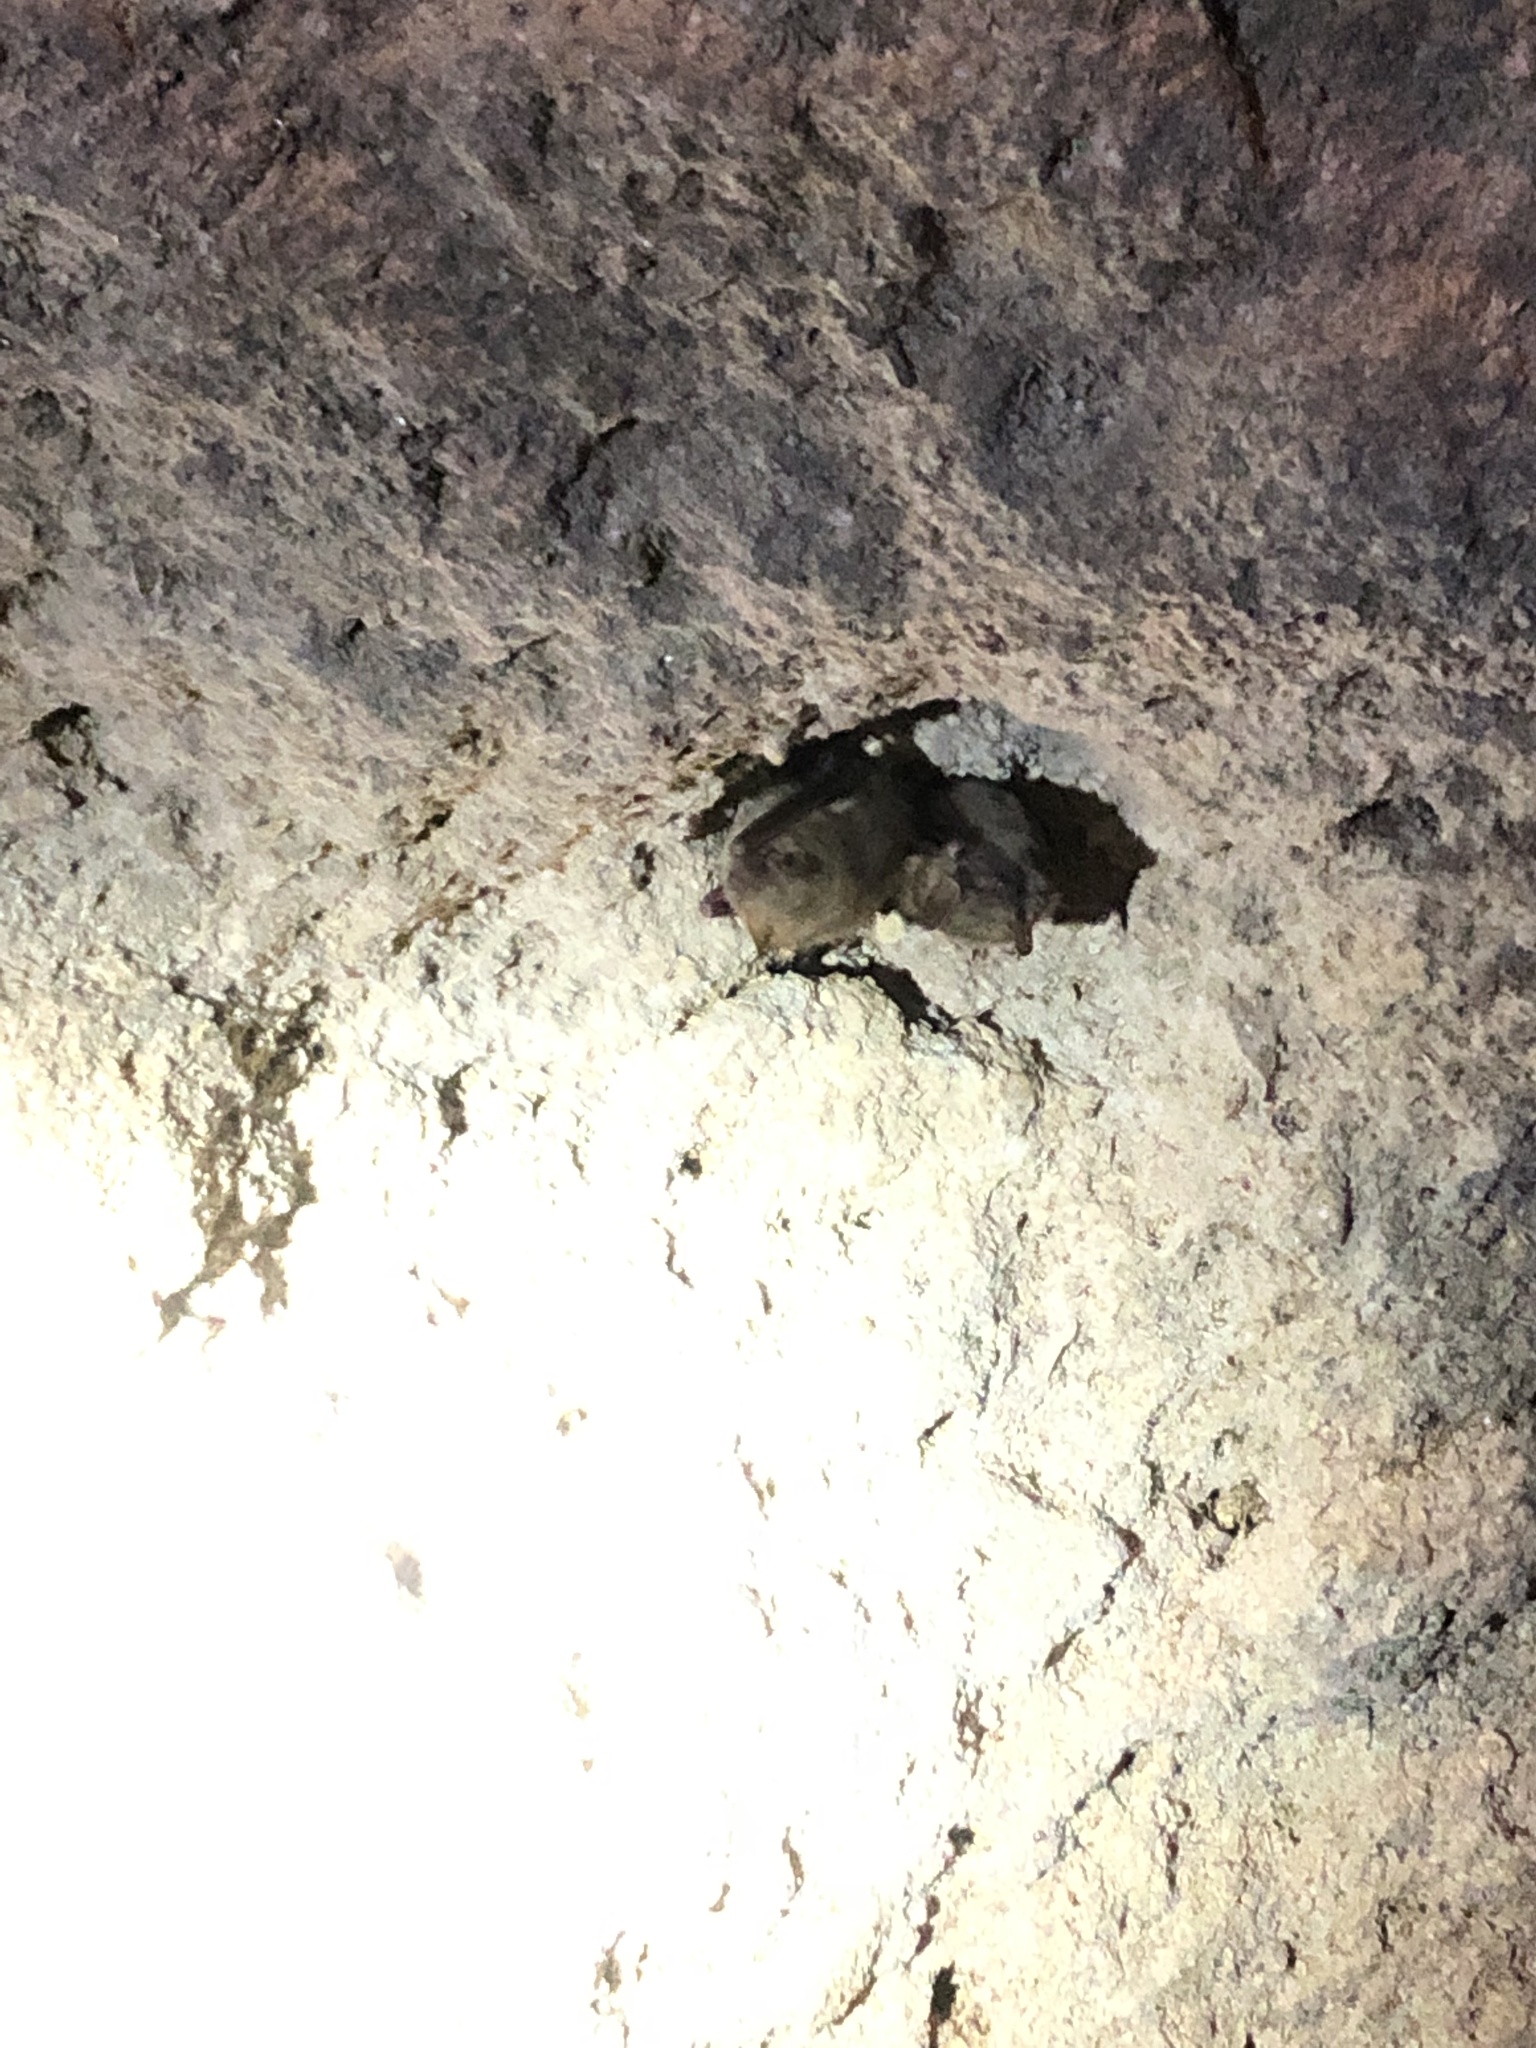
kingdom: Animalia
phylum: Chordata
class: Mammalia
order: Chiroptera
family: Vespertilionidae
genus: Perimyotis
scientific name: Perimyotis subflavus
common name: Eastern pipistrelle
